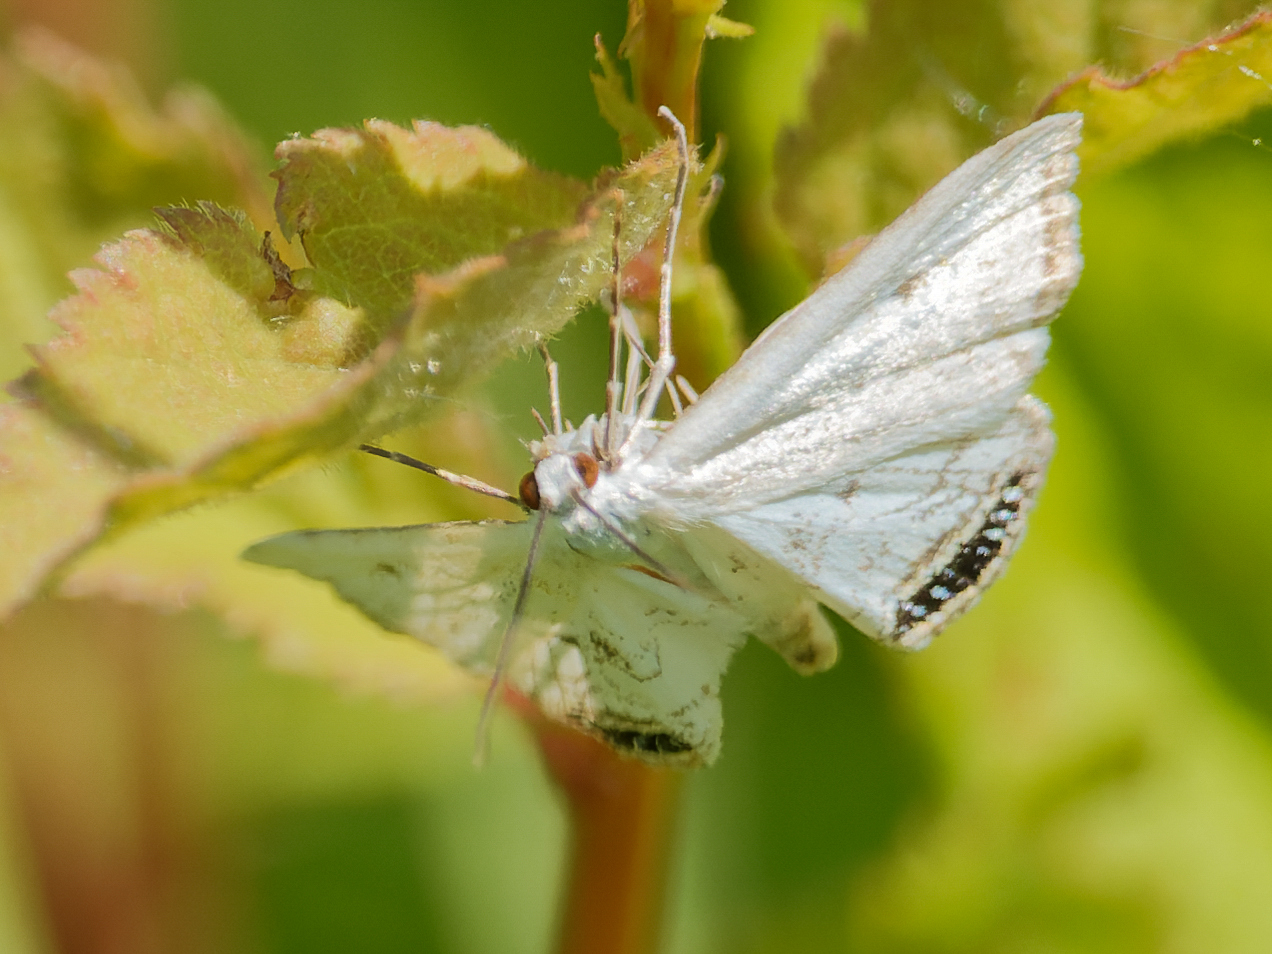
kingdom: Animalia
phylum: Arthropoda
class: Insecta
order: Lepidoptera
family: Crambidae
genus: Cataclysta
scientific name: Cataclysta lemnata
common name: Small china-mark
